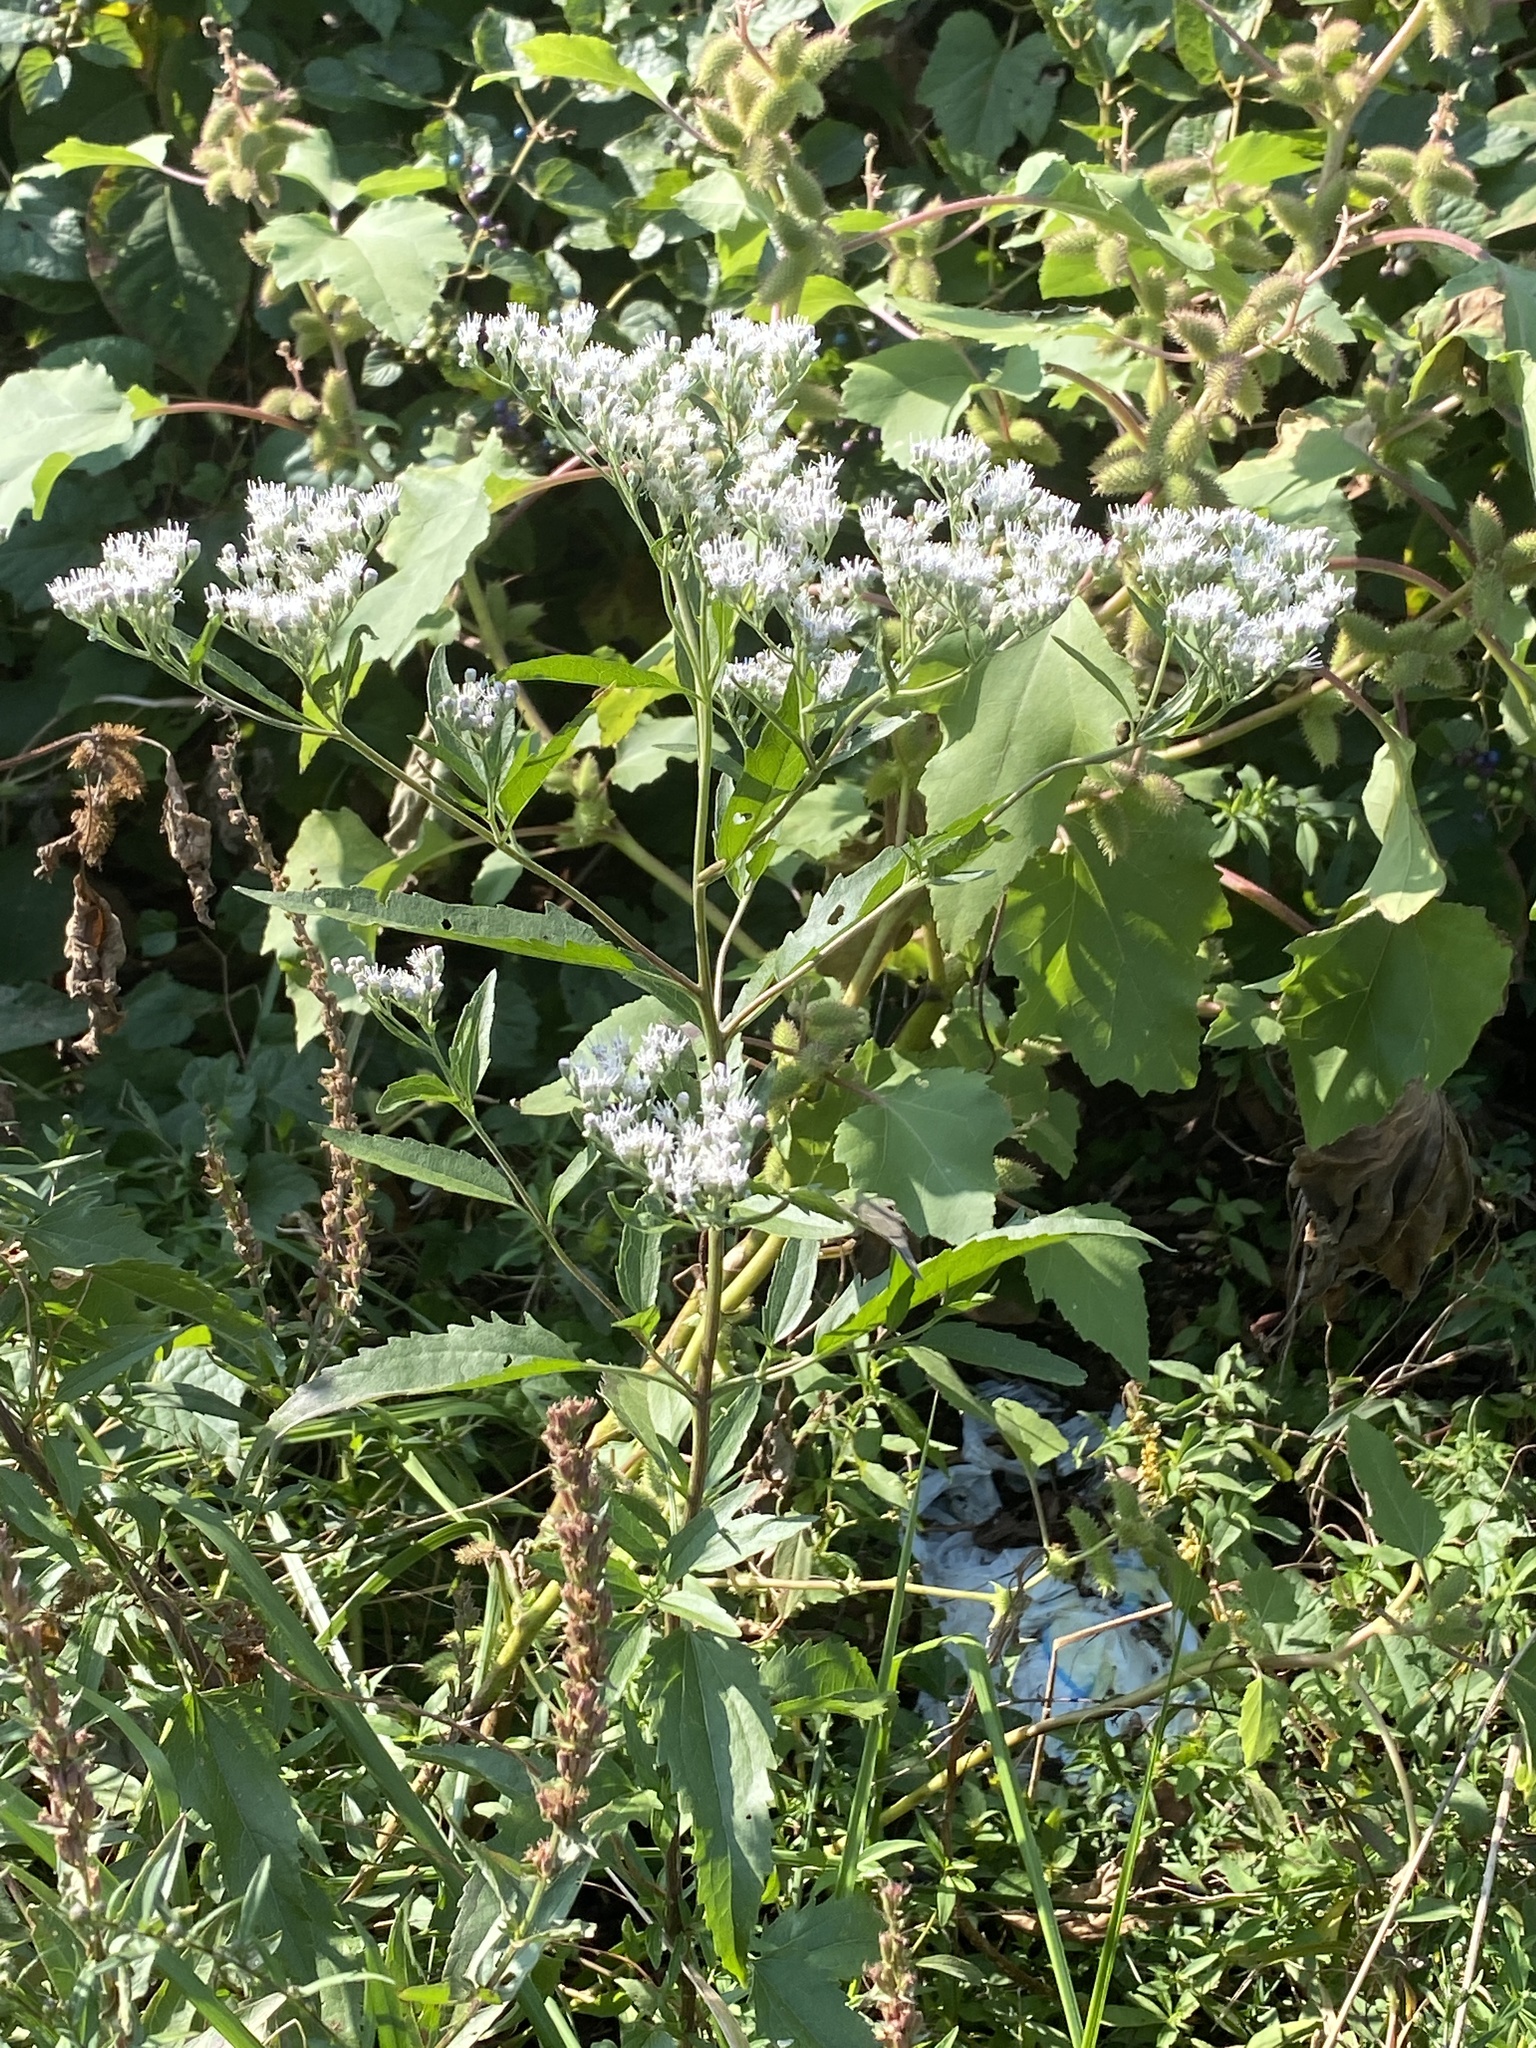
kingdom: Plantae
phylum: Tracheophyta
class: Magnoliopsida
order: Asterales
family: Asteraceae
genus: Eupatorium
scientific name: Eupatorium serotinum
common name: Late boneset
